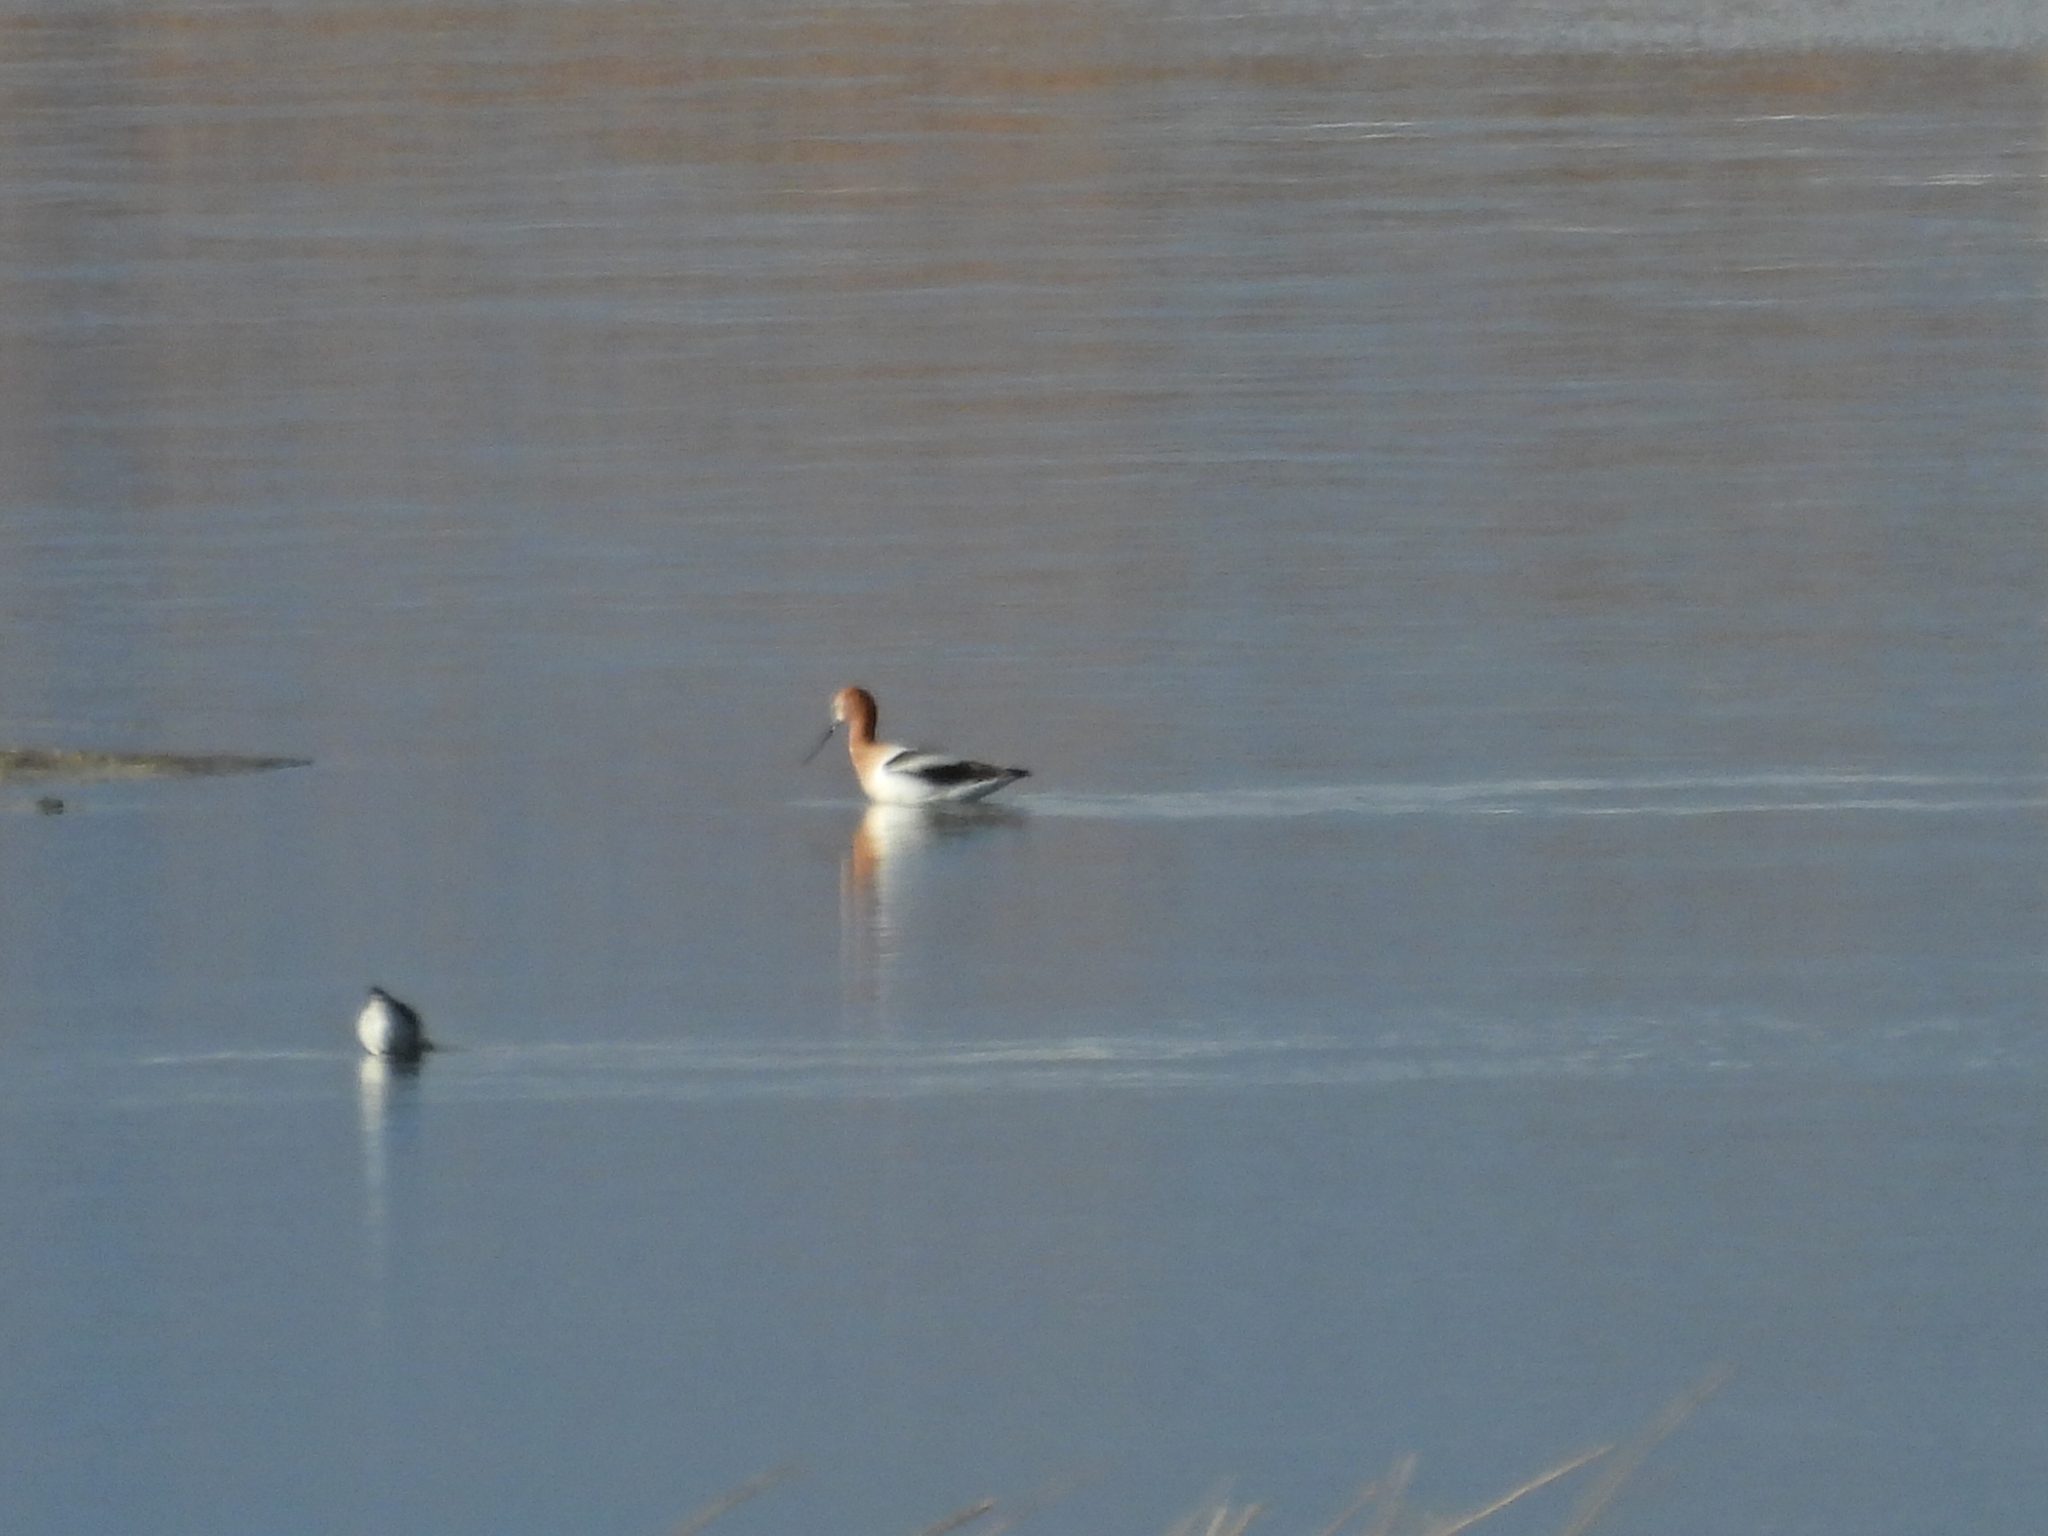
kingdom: Animalia
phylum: Chordata
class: Aves
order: Charadriiformes
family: Recurvirostridae
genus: Recurvirostra
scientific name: Recurvirostra americana
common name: American avocet
